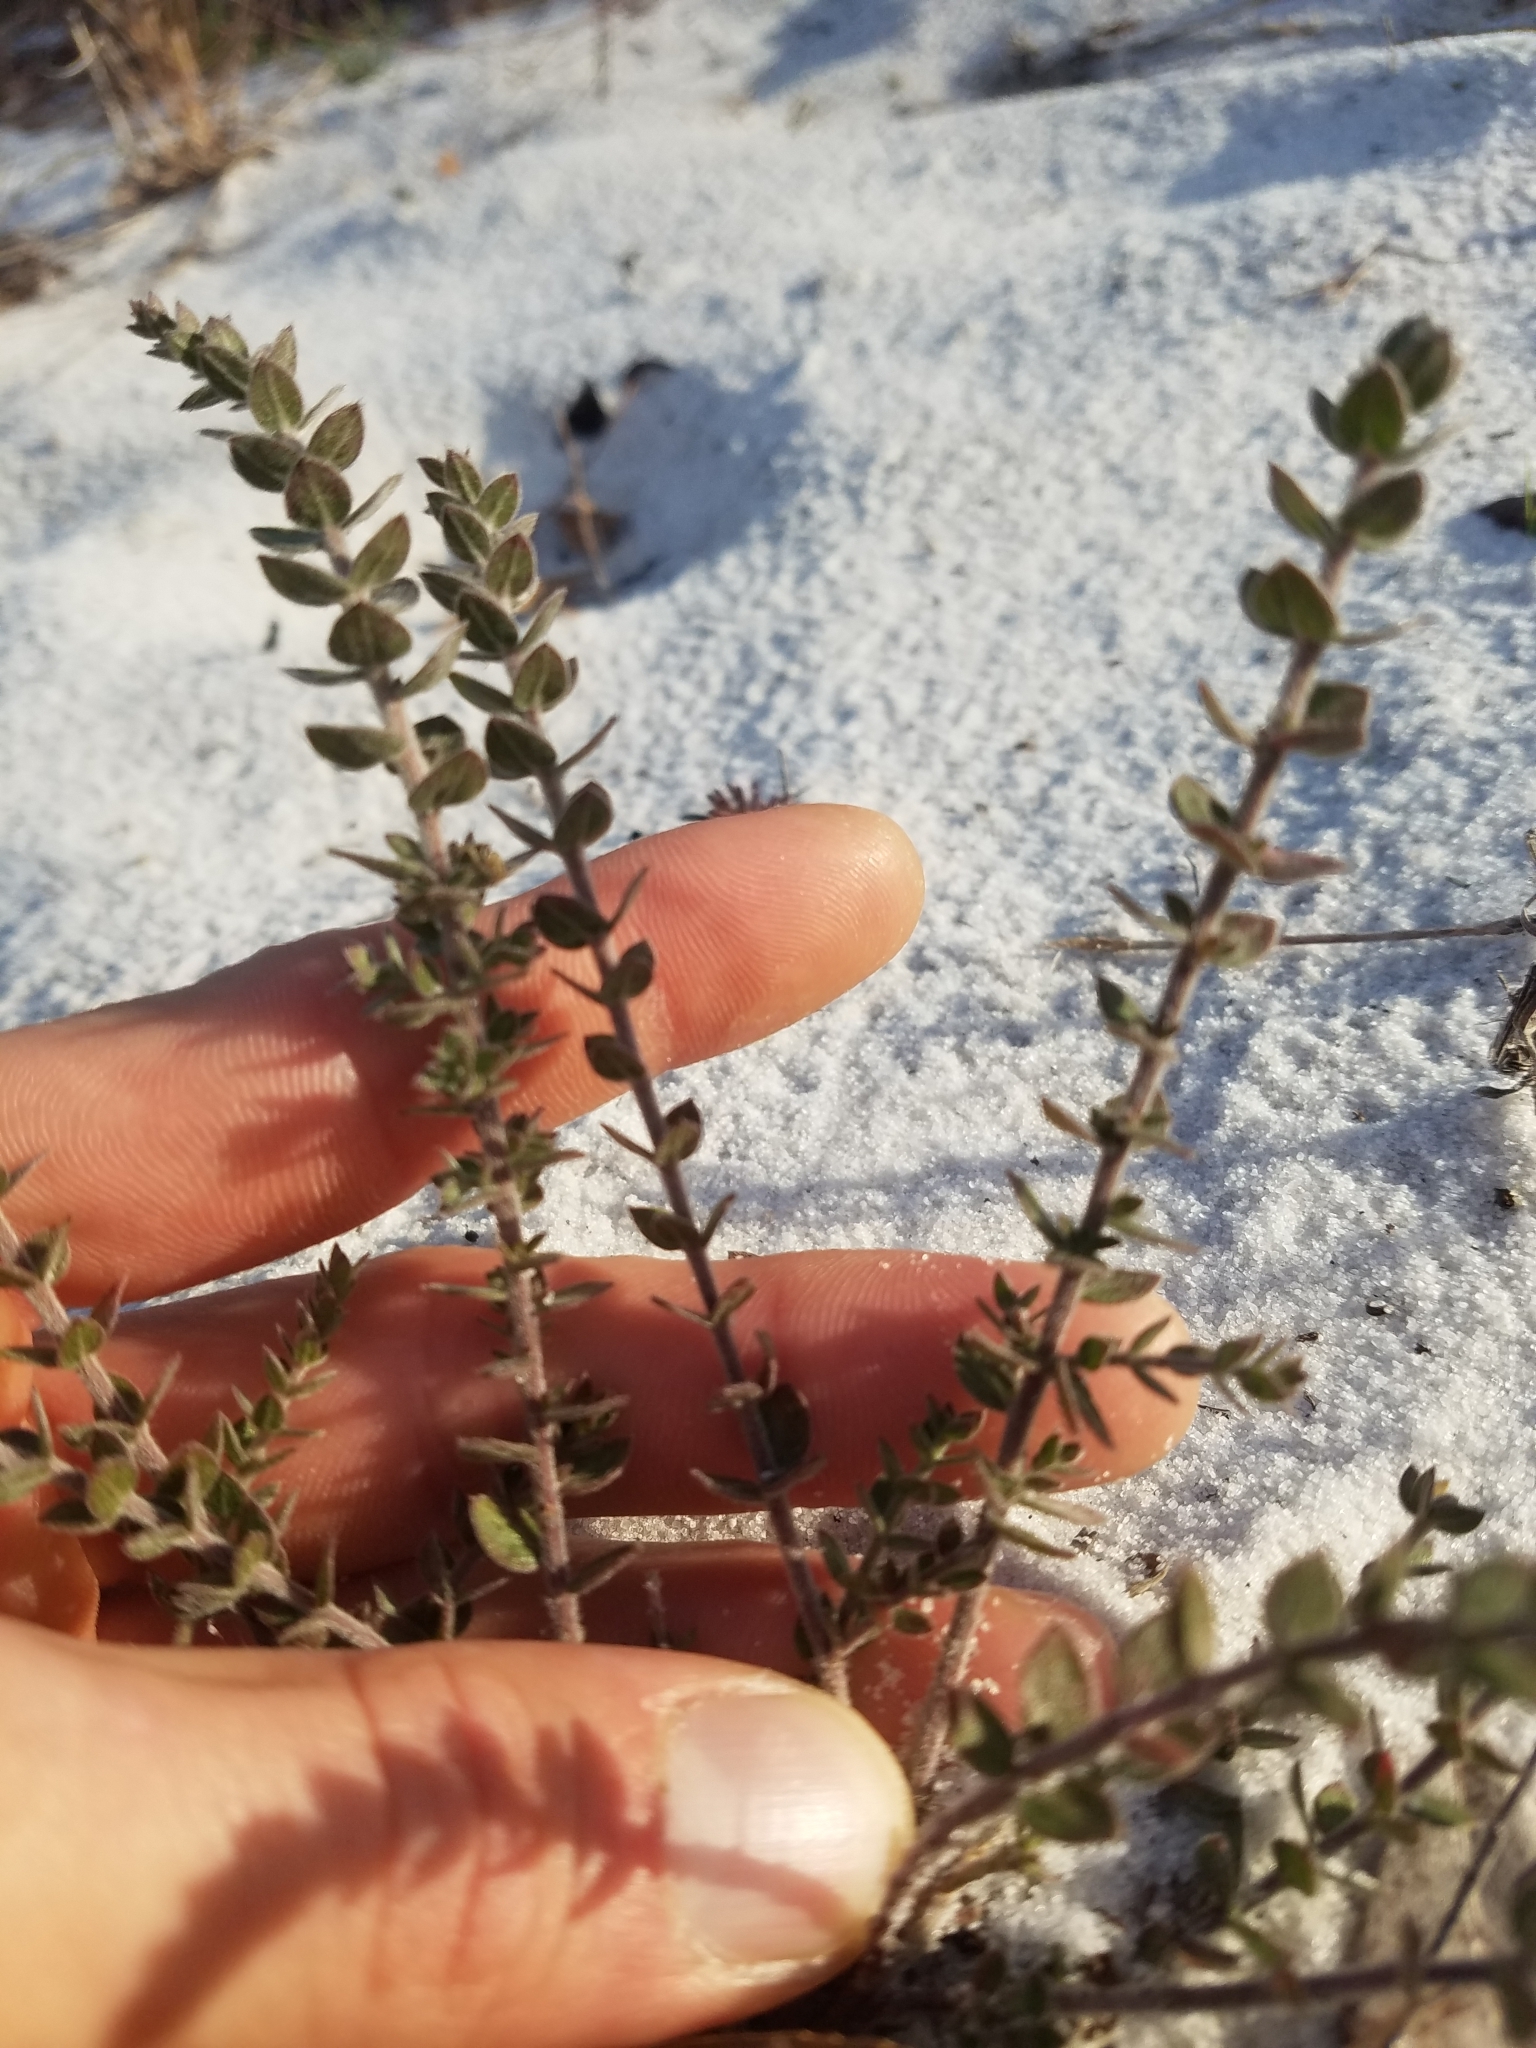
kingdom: Plantae
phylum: Tracheophyta
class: Magnoliopsida
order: Malvales
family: Cistaceae
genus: Lechea
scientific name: Lechea cernua
